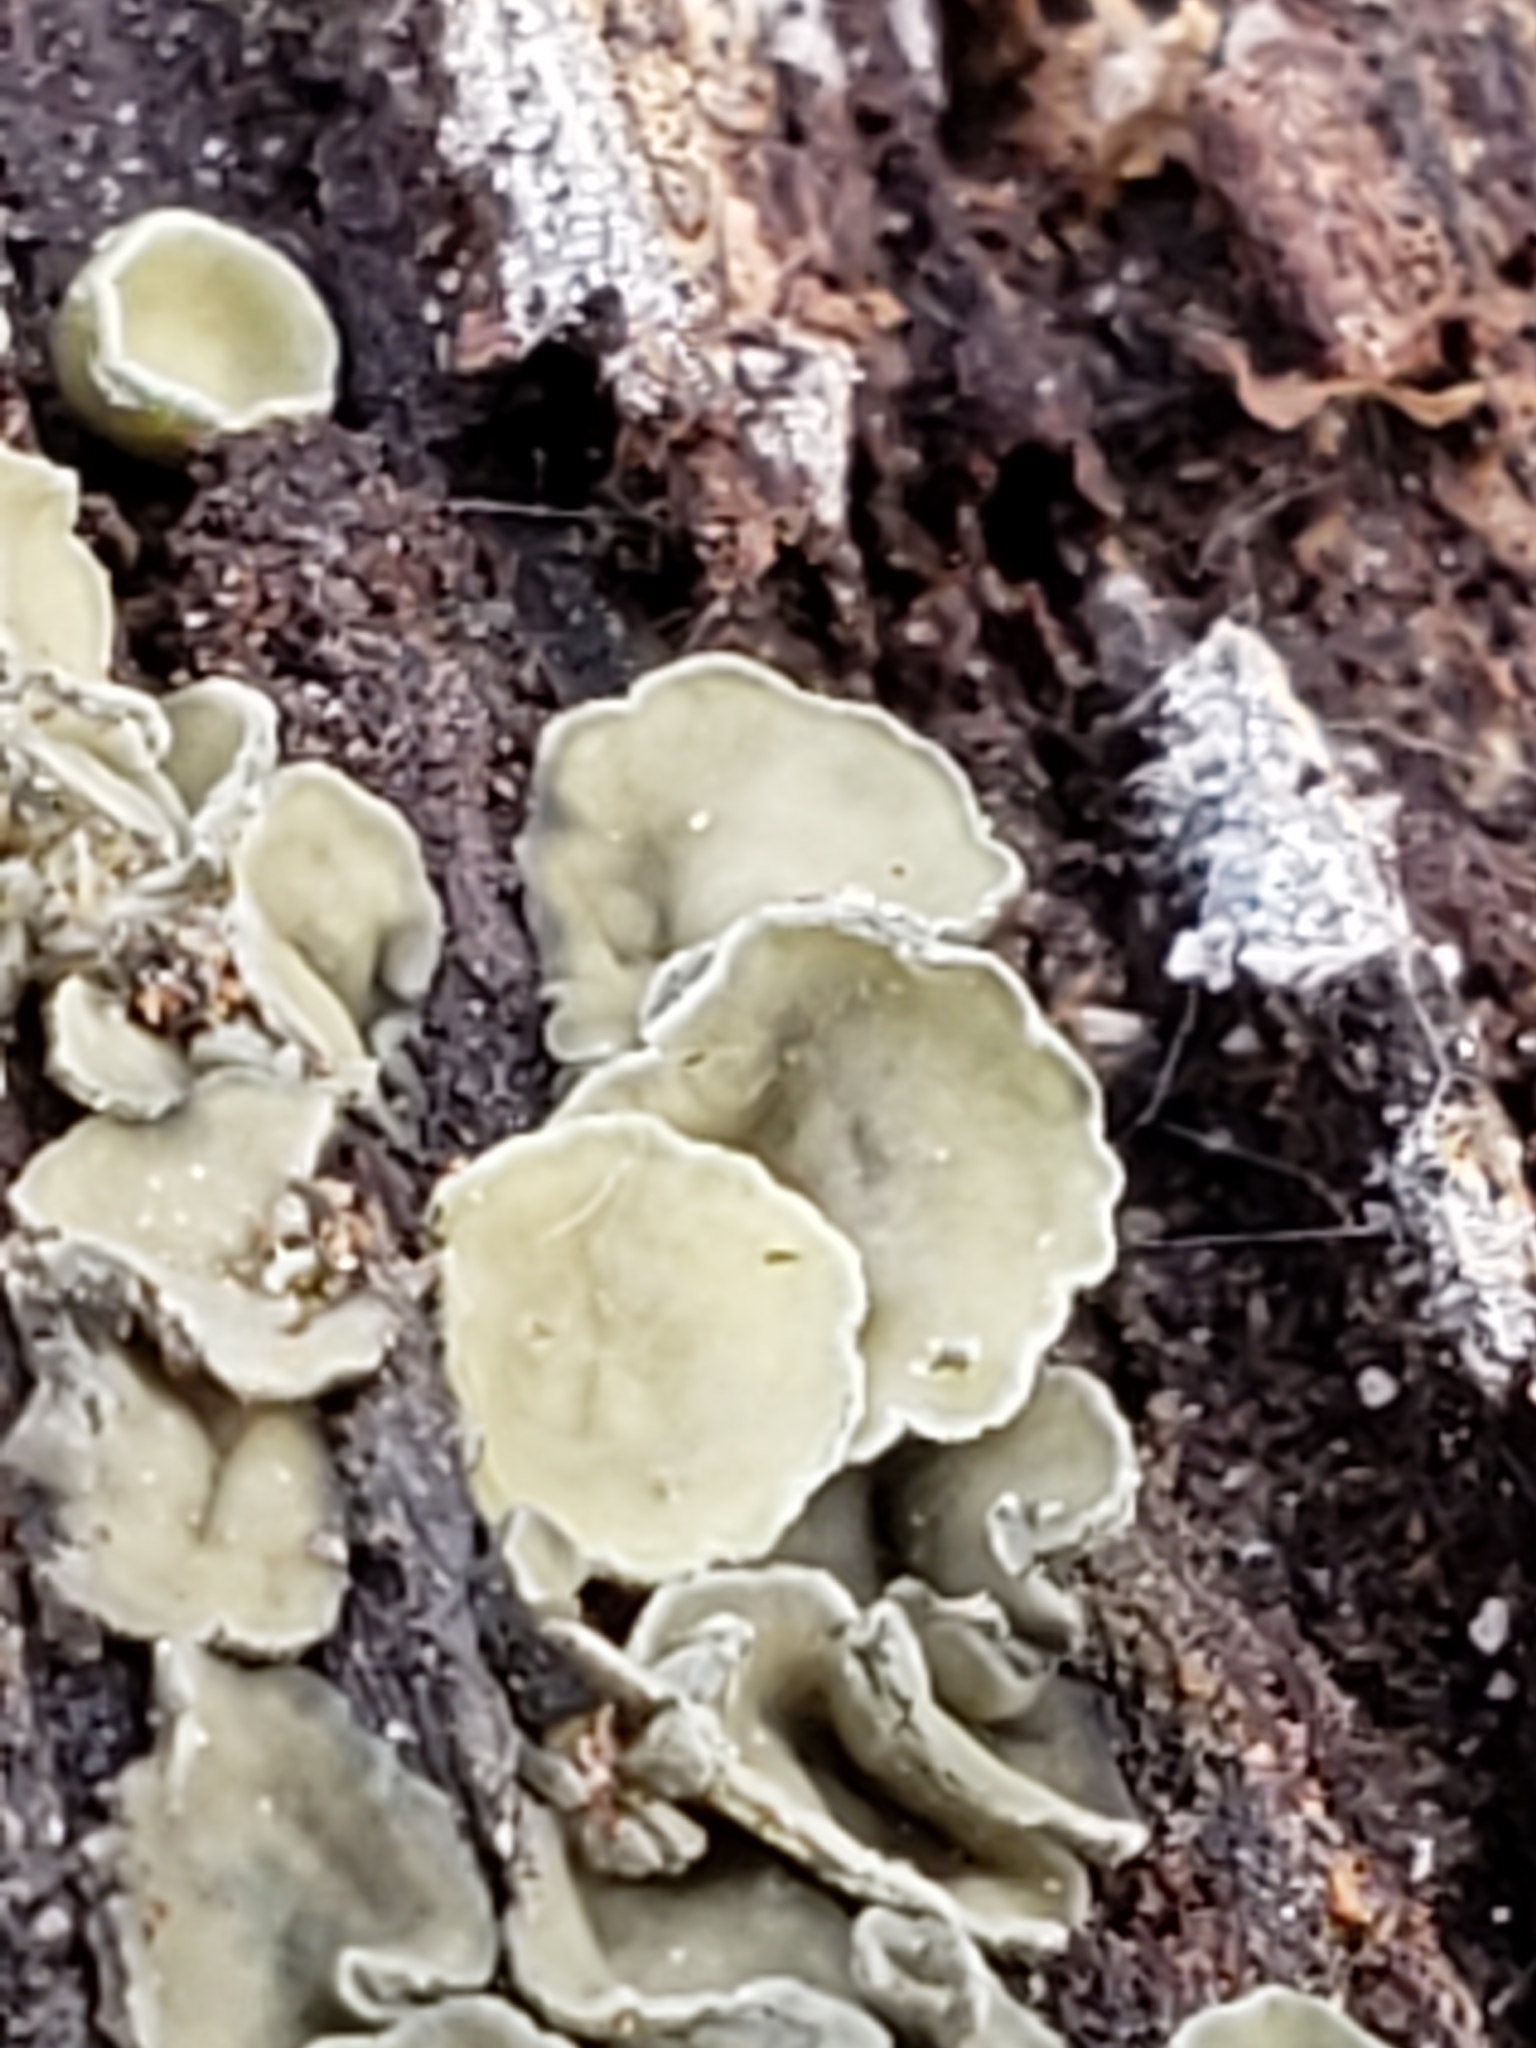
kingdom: Fungi
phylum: Ascomycota
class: Leotiomycetes
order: Helotiales
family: Chlorospleniaceae
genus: Chlorosplenium
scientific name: Chlorosplenium chlora
